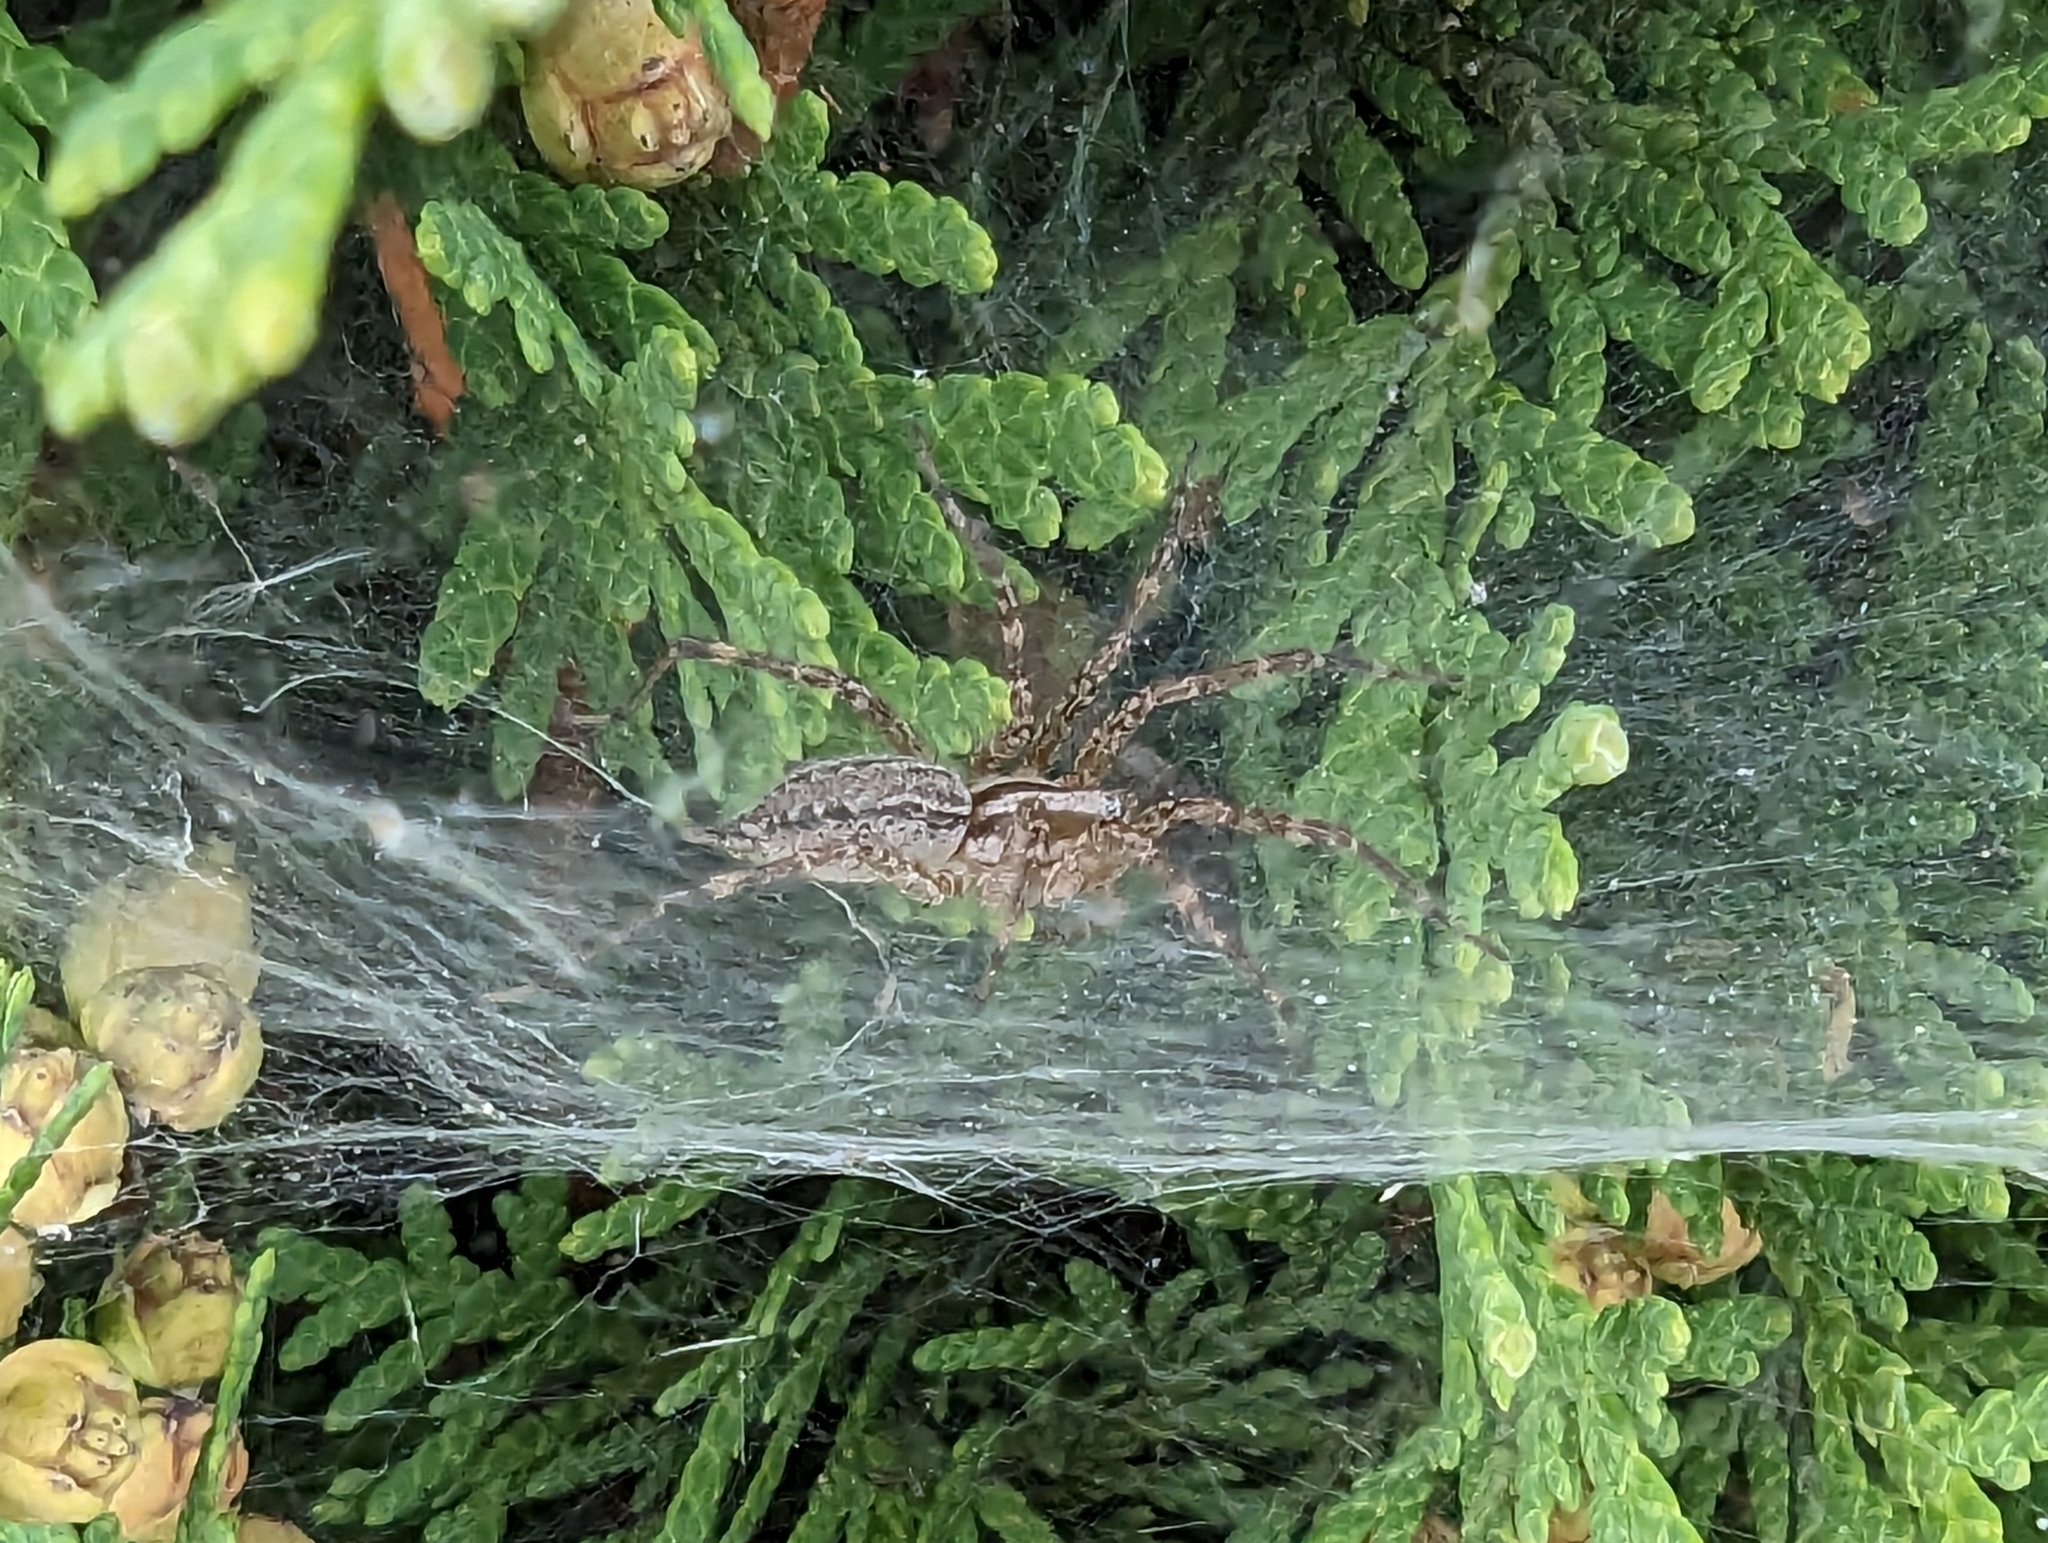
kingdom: Animalia
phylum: Arthropoda
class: Arachnida
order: Araneae
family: Agelenidae
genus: Agelenopsis
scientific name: Agelenopsis
